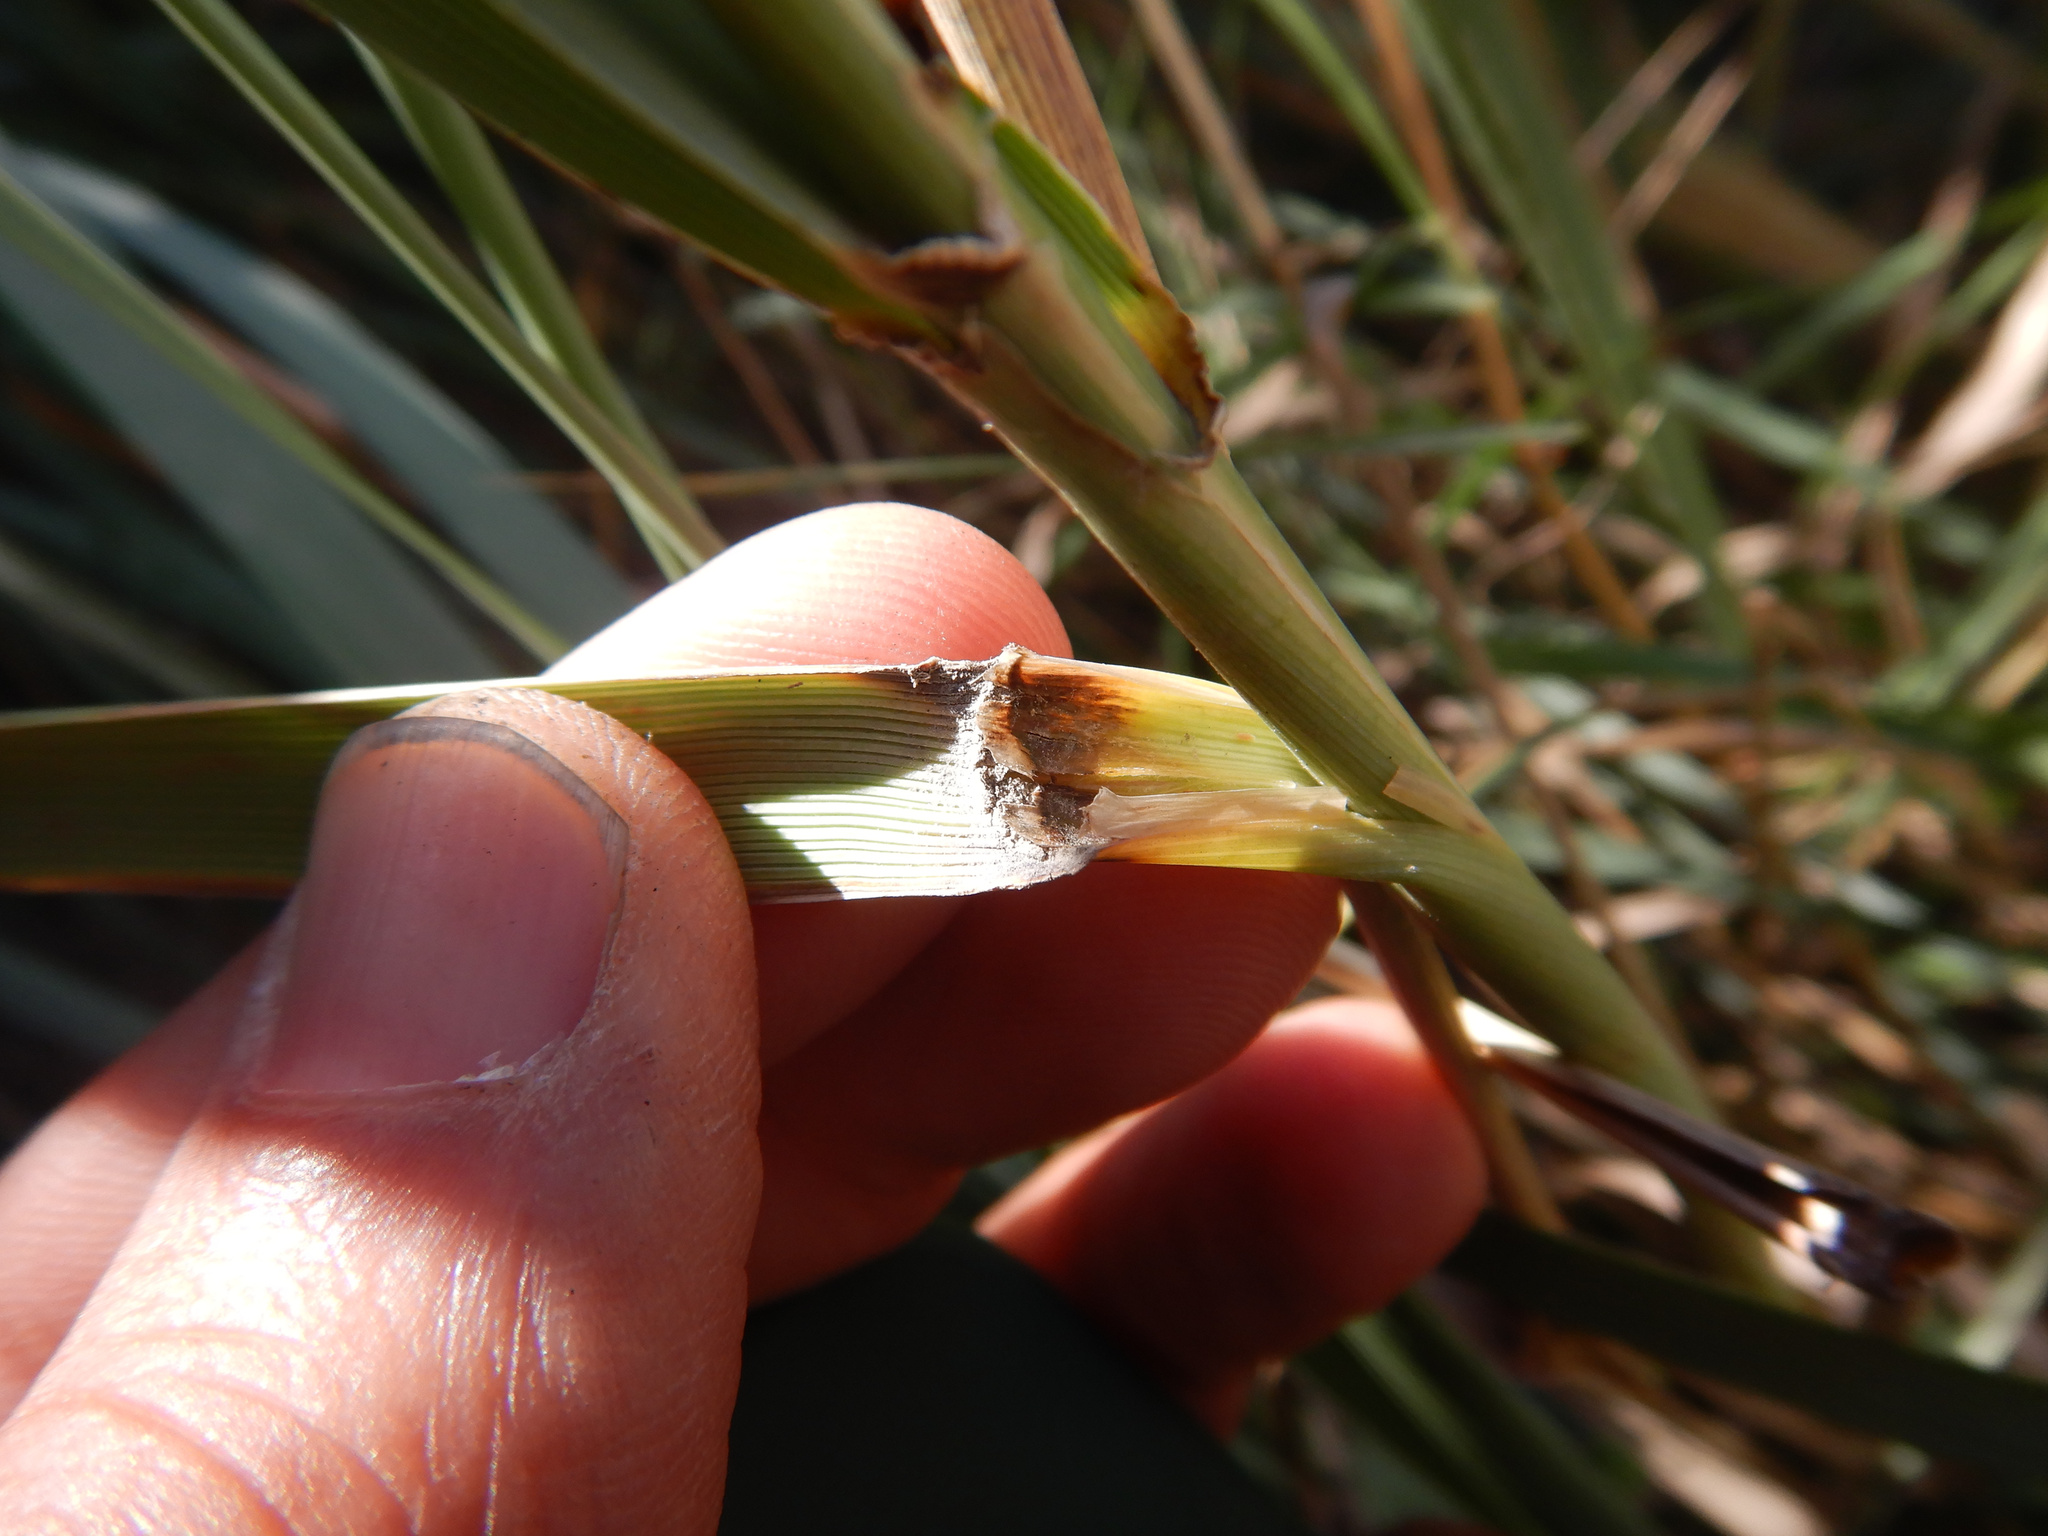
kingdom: Plantae
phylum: Tracheophyta
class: Liliopsida
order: Poales
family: Poaceae
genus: Leymus
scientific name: Leymus arenarius
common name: Lyme-grass
